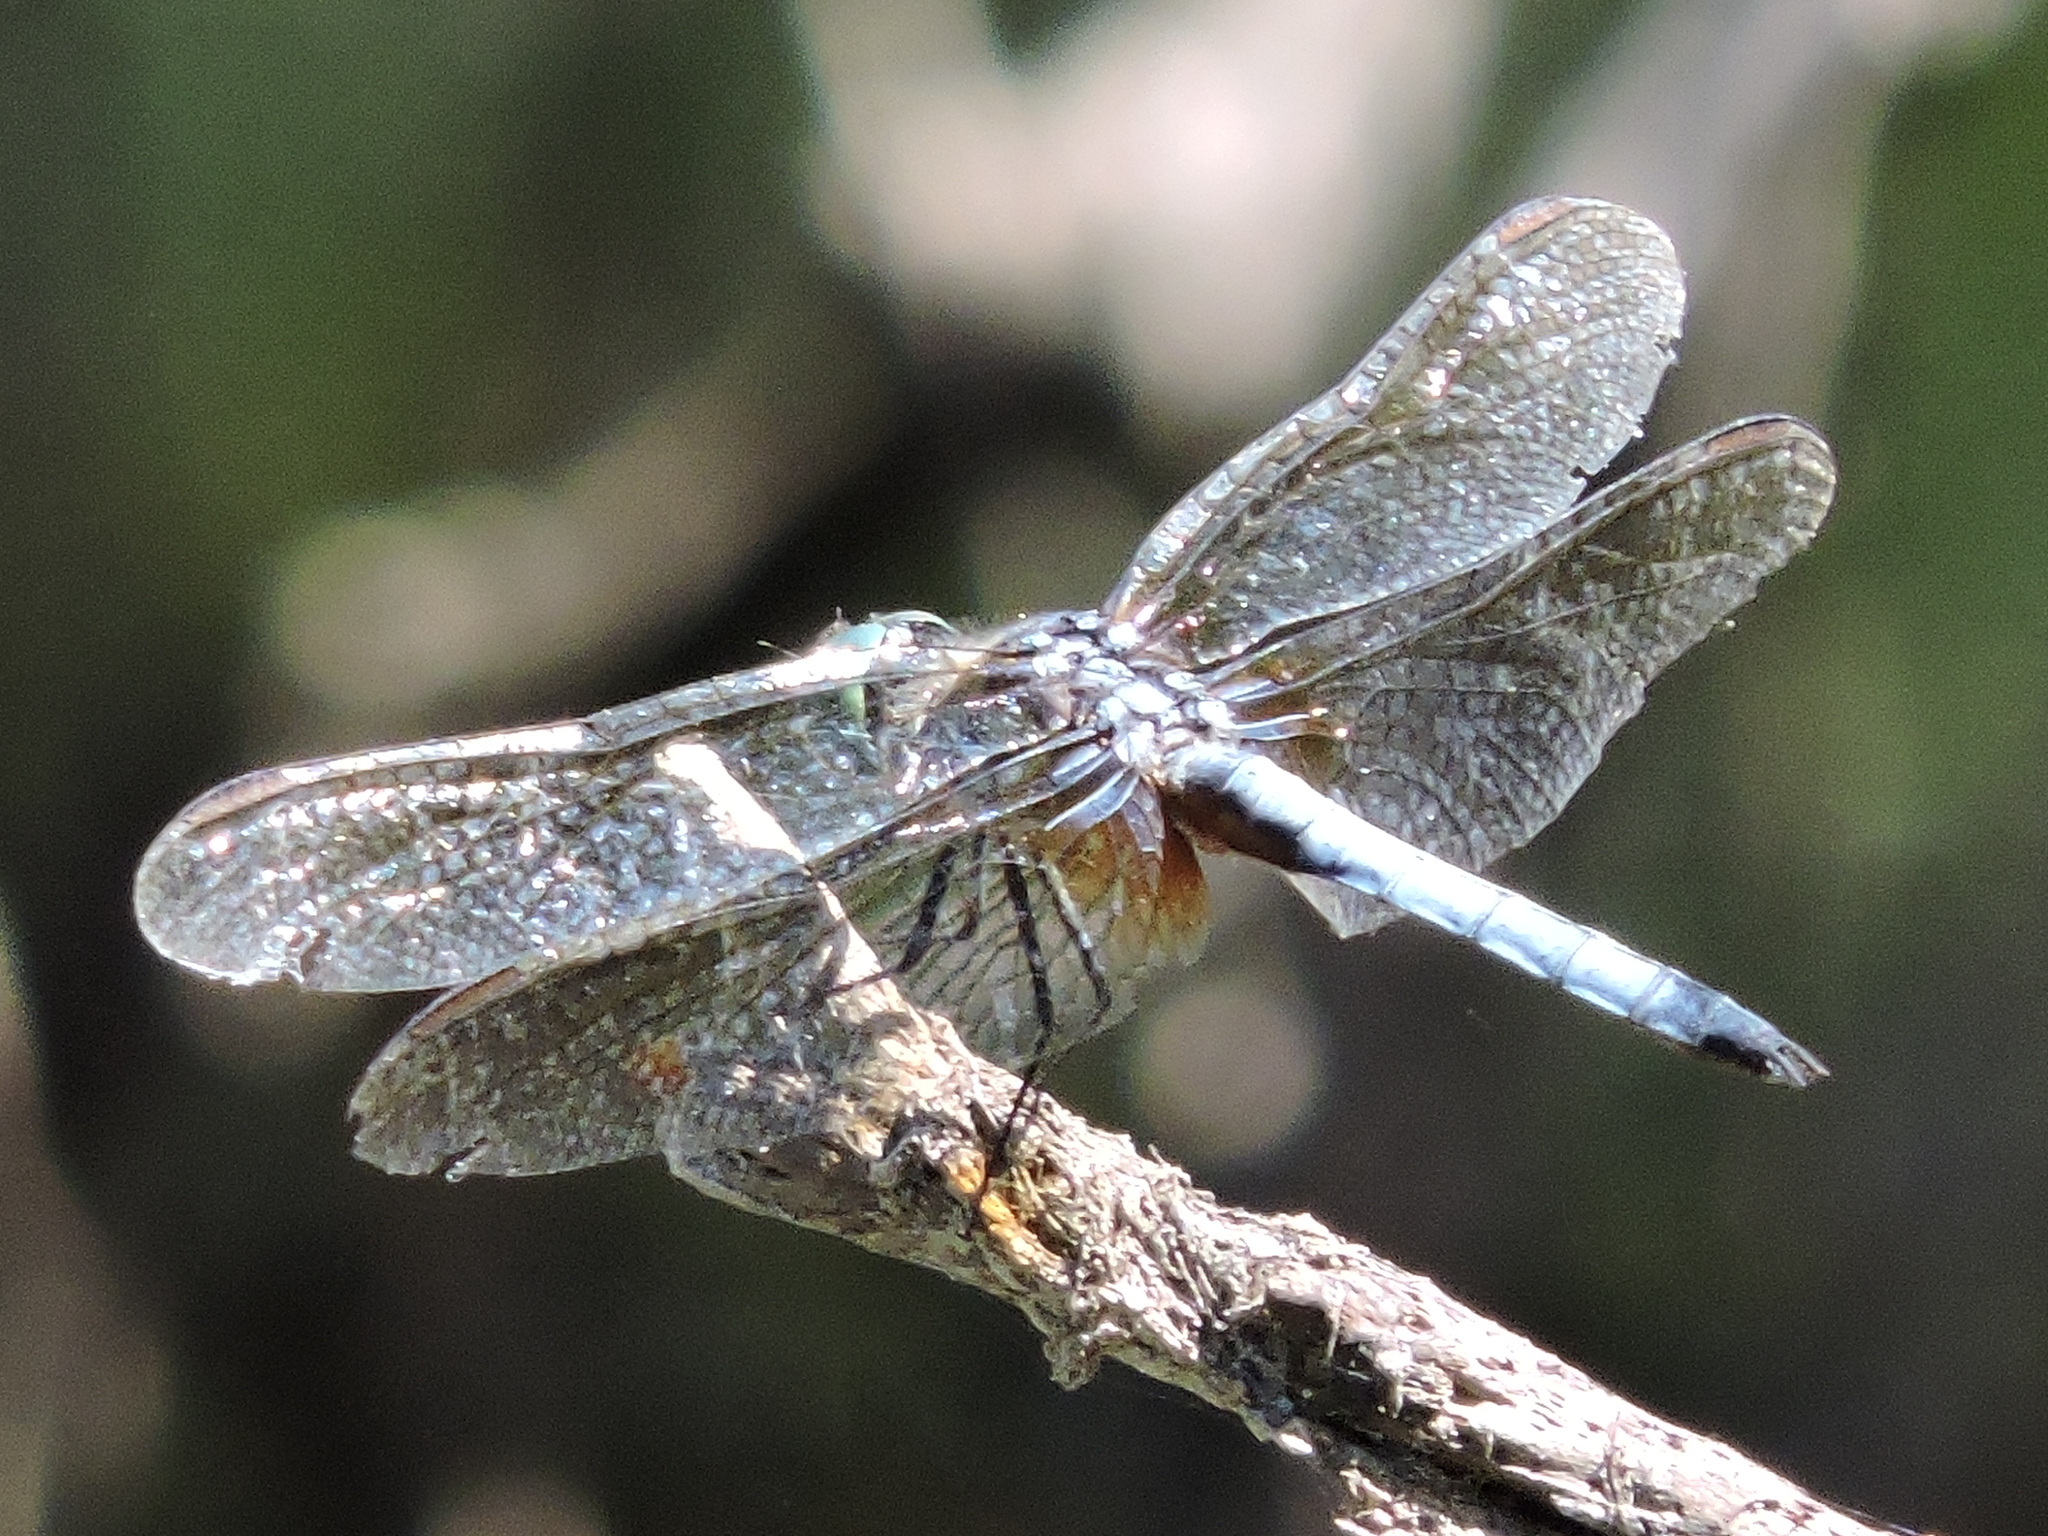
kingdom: Animalia
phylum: Arthropoda
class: Insecta
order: Odonata
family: Libellulidae
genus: Pachydiplax
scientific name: Pachydiplax longipennis
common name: Blue dasher
